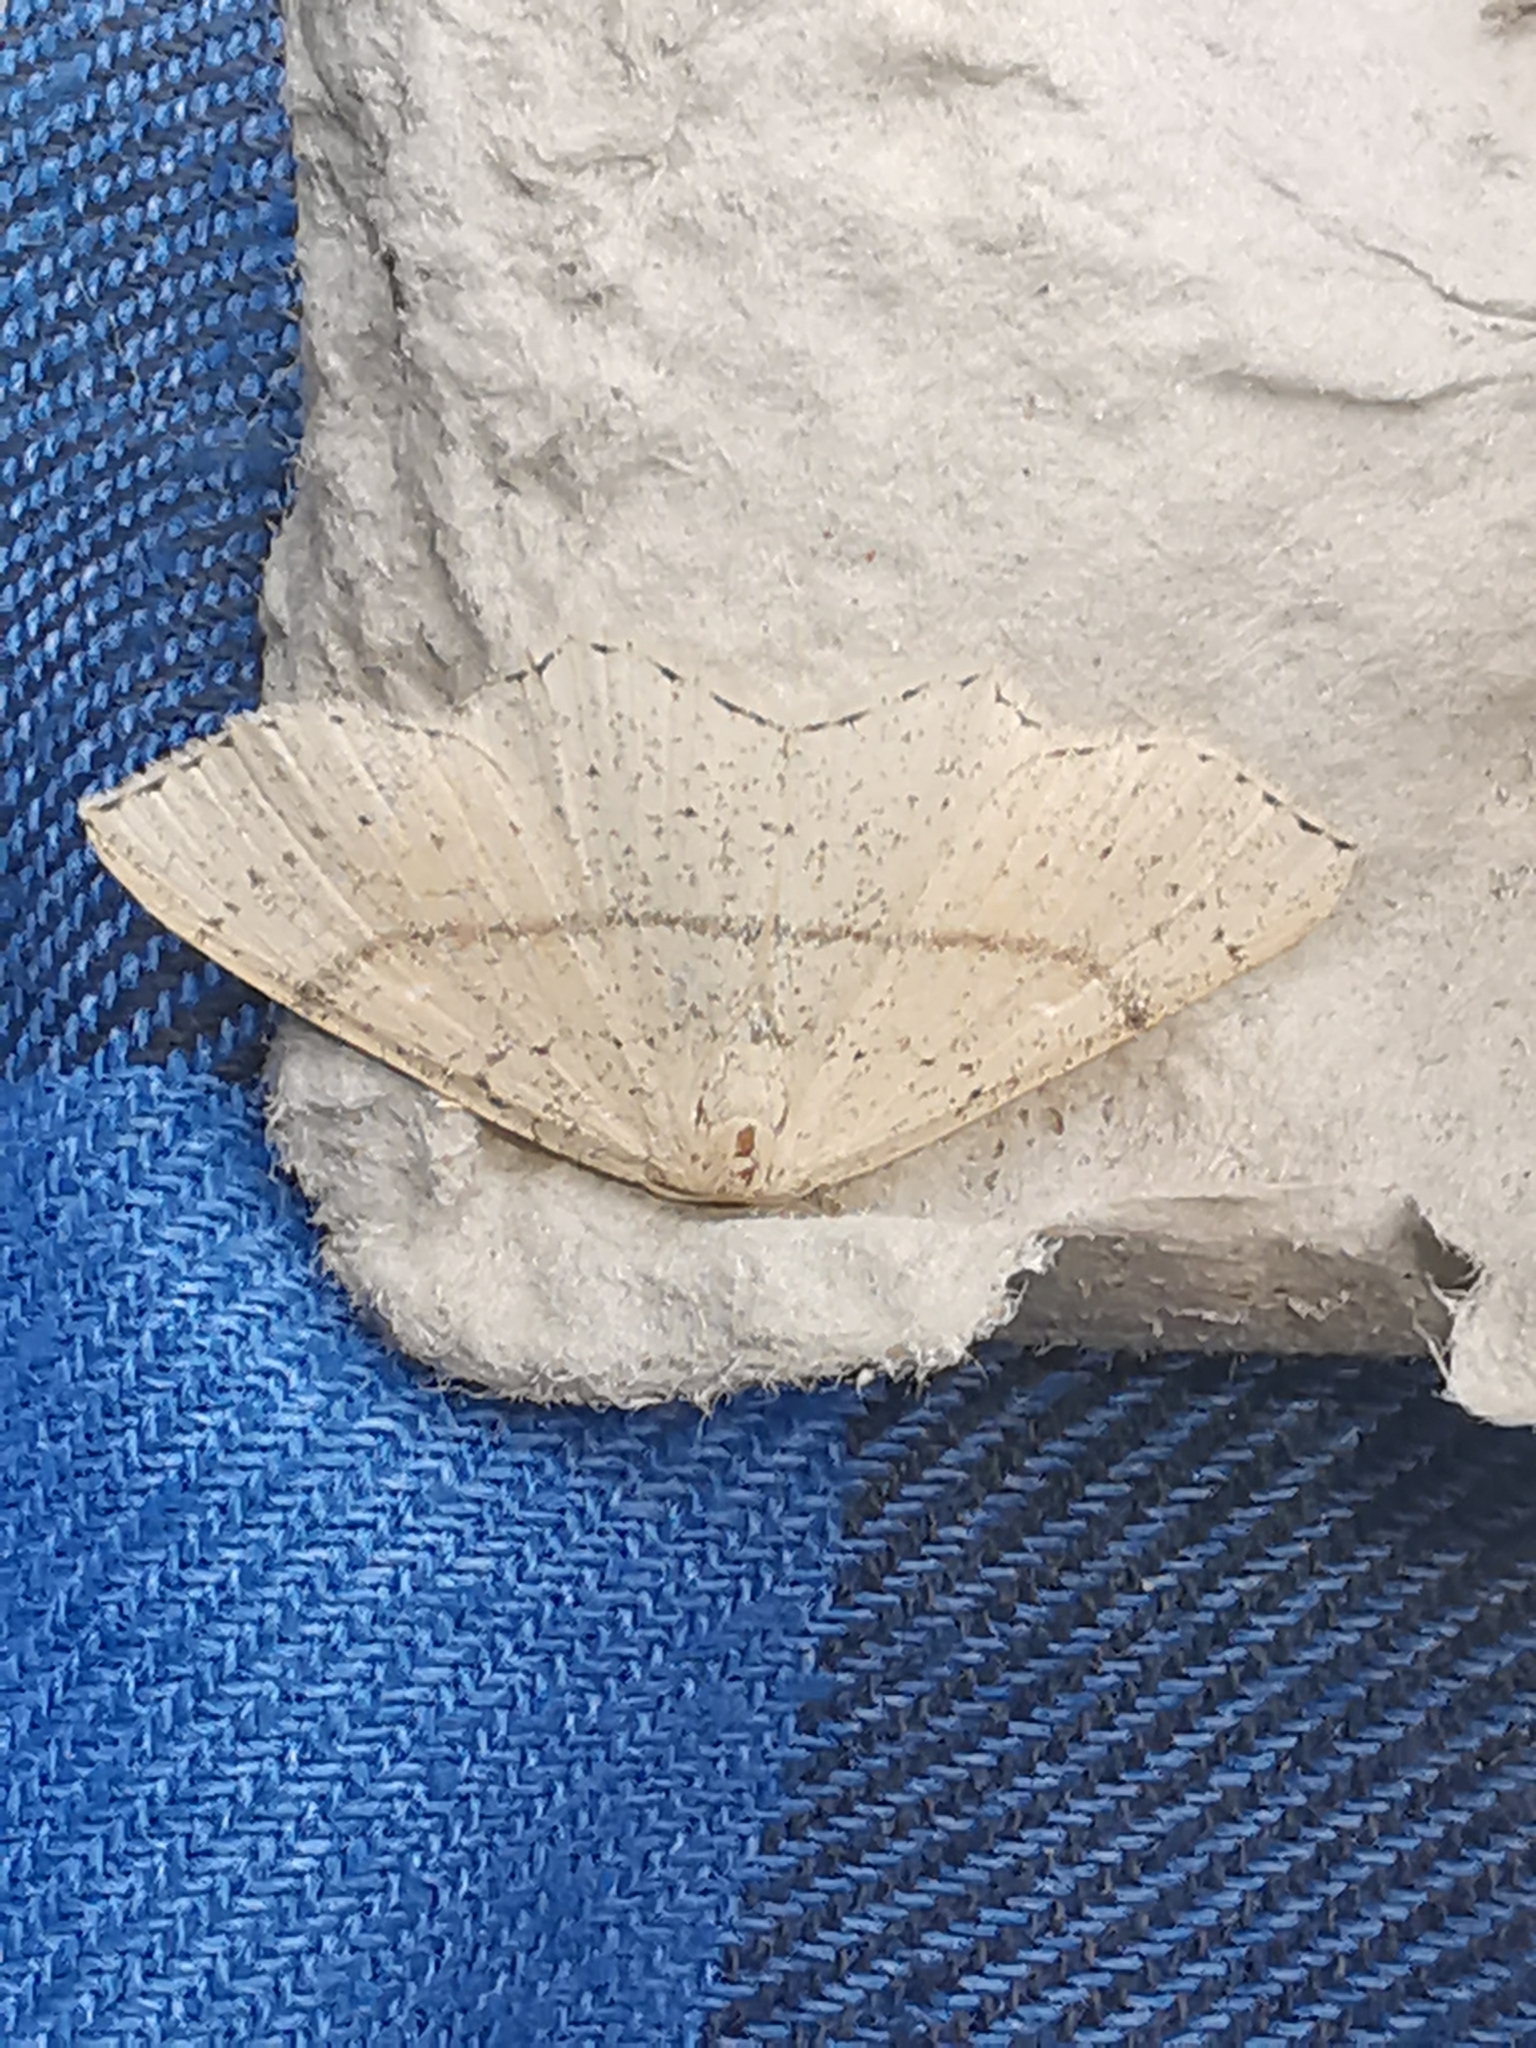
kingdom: Animalia
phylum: Arthropoda
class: Insecta
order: Lepidoptera
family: Geometridae
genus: Cyclophora
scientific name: Cyclophora punctaria
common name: Maiden's blush
